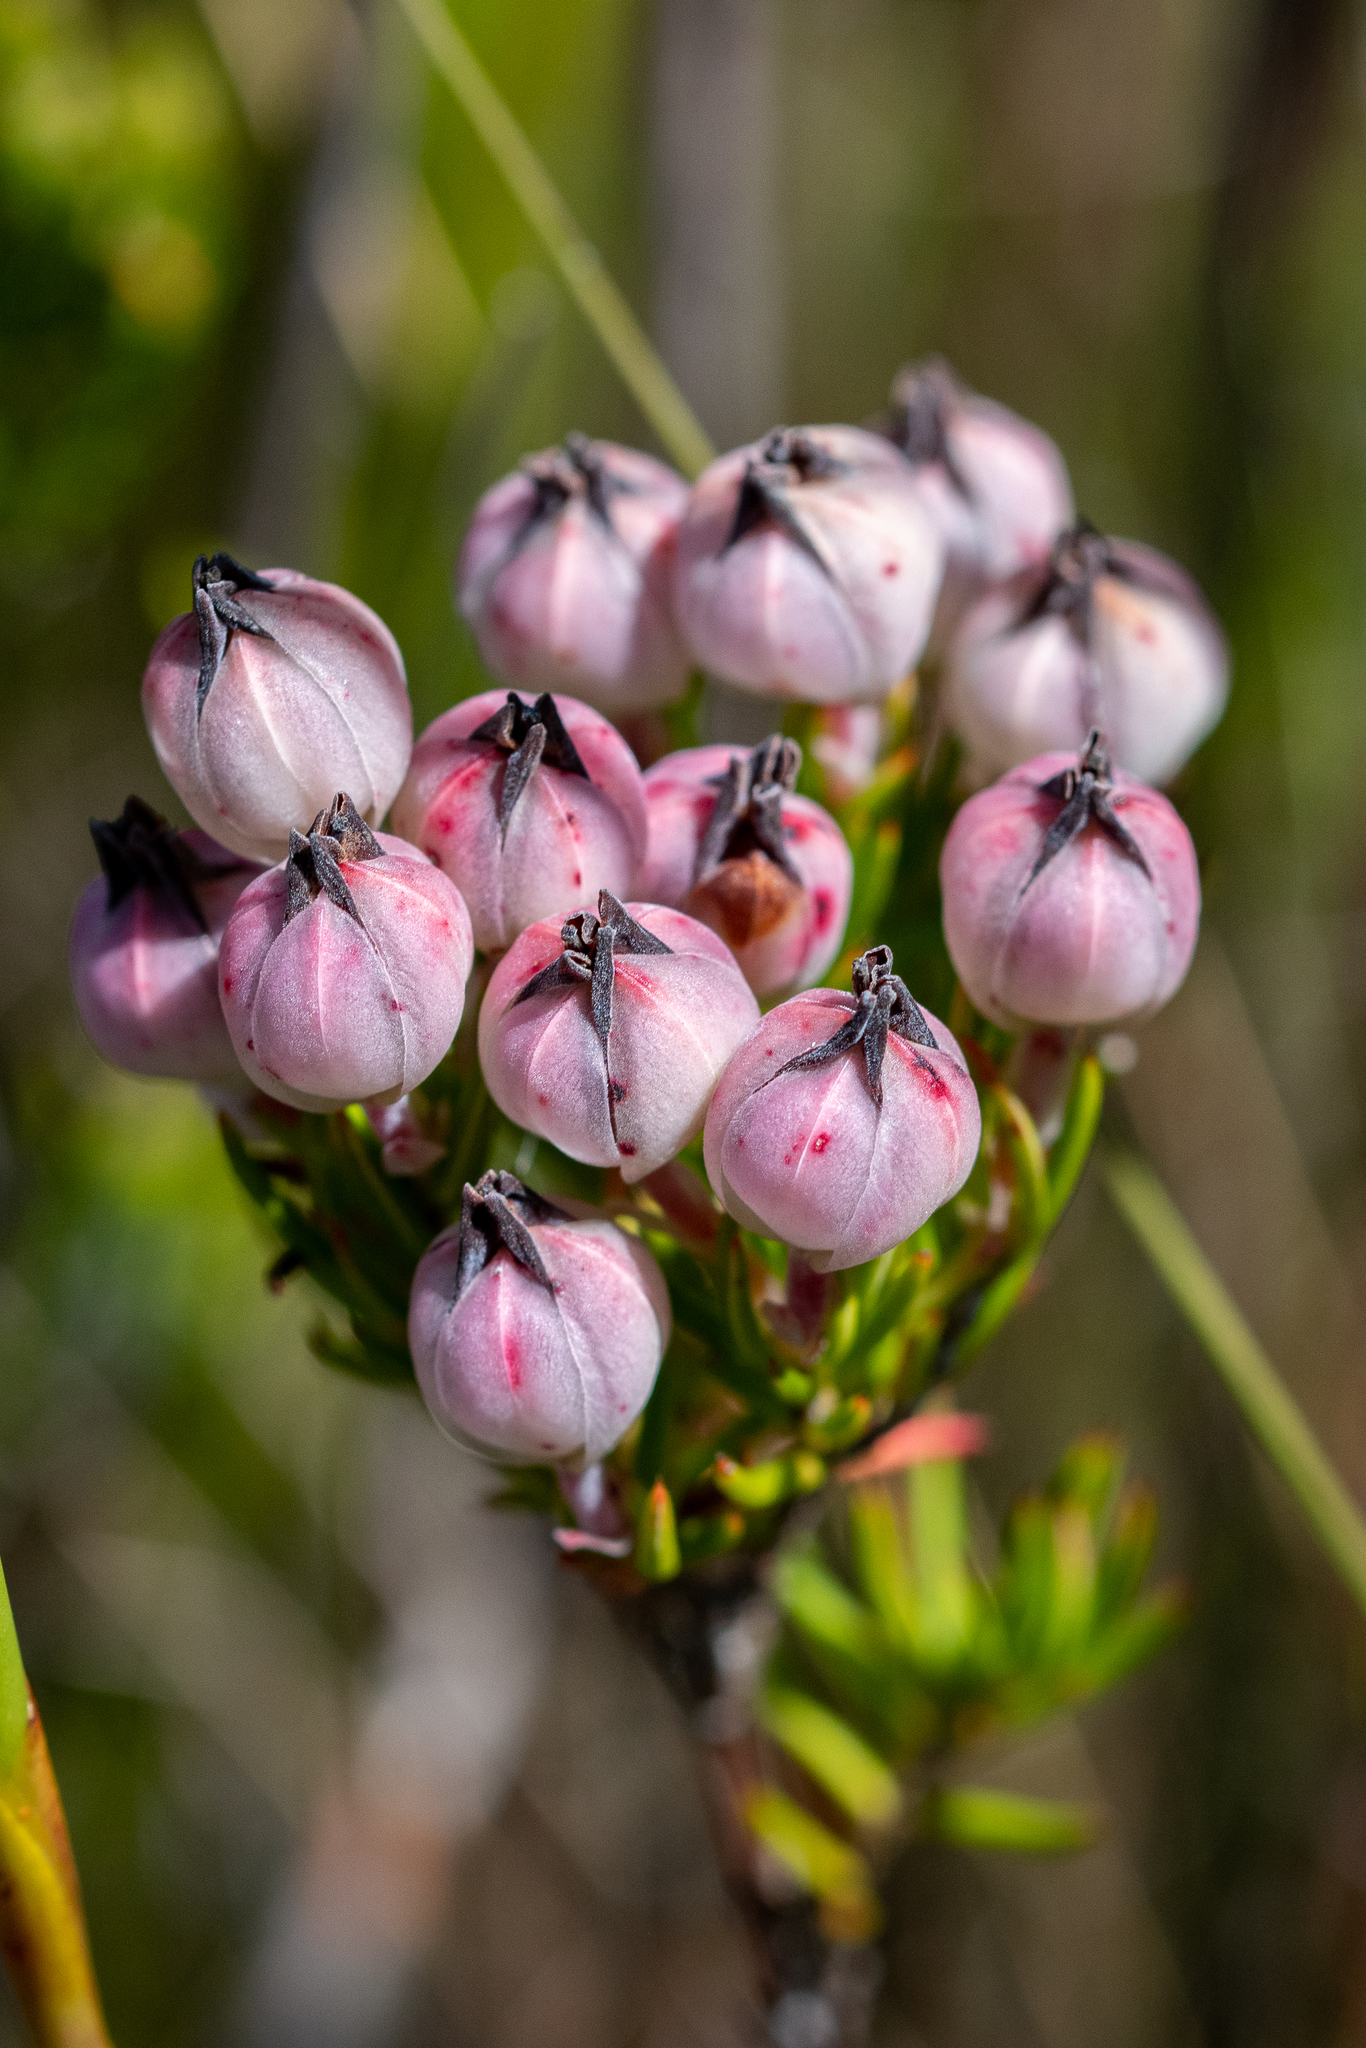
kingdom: Plantae
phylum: Tracheophyta
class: Magnoliopsida
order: Ericales
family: Ericaceae
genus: Erica
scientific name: Erica holosericea
